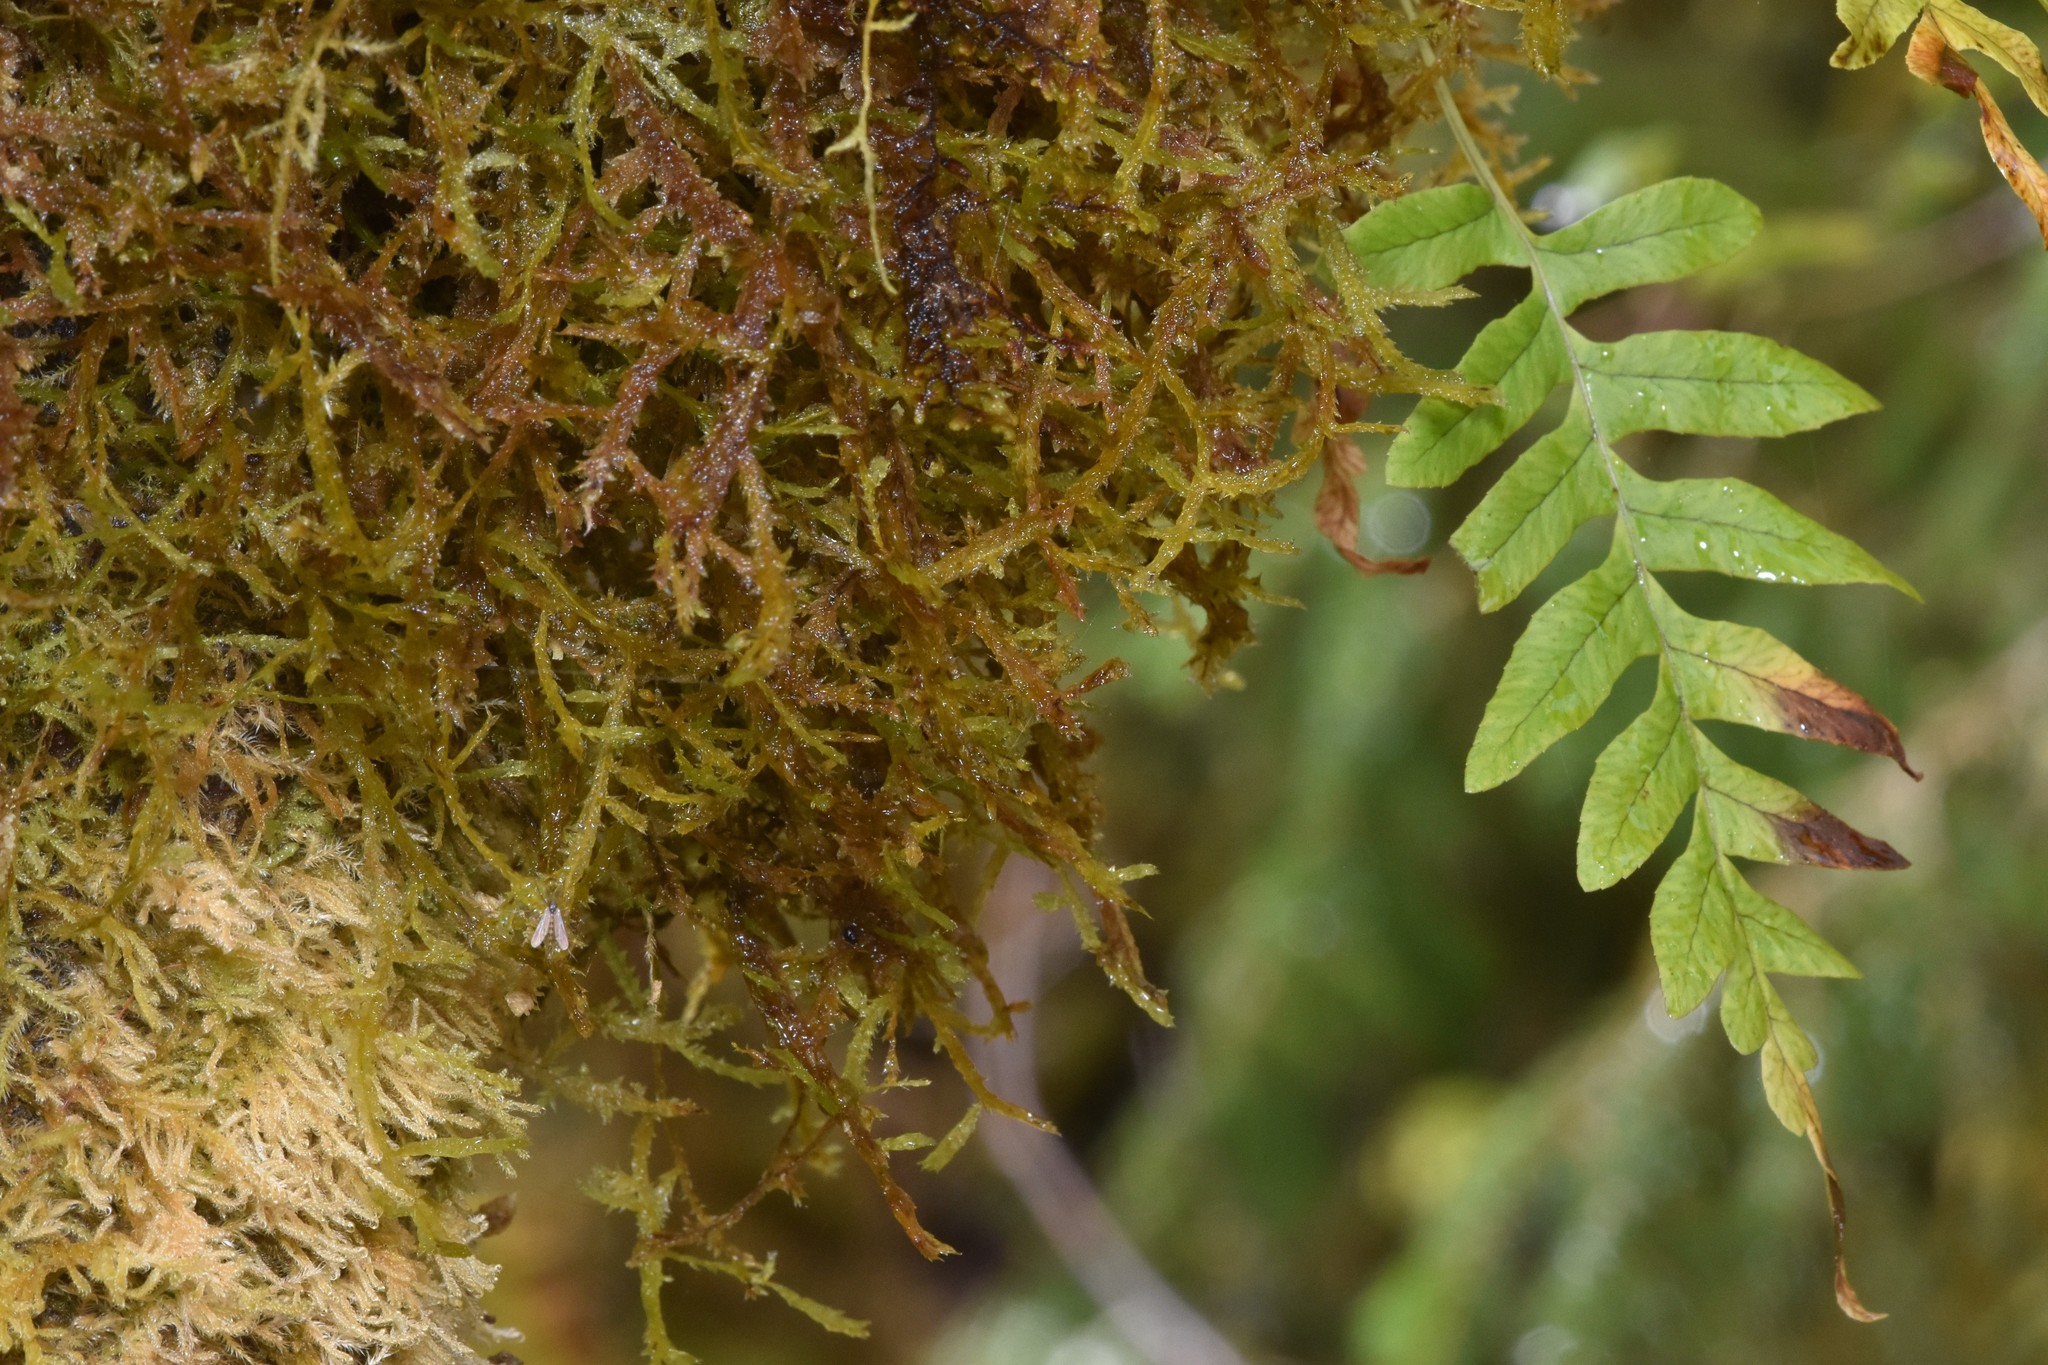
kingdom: Plantae
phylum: Tracheophyta
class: Polypodiopsida
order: Polypodiales
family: Polypodiaceae
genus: Polypodium
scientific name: Polypodium glycyrrhiza
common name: Licorice fern
